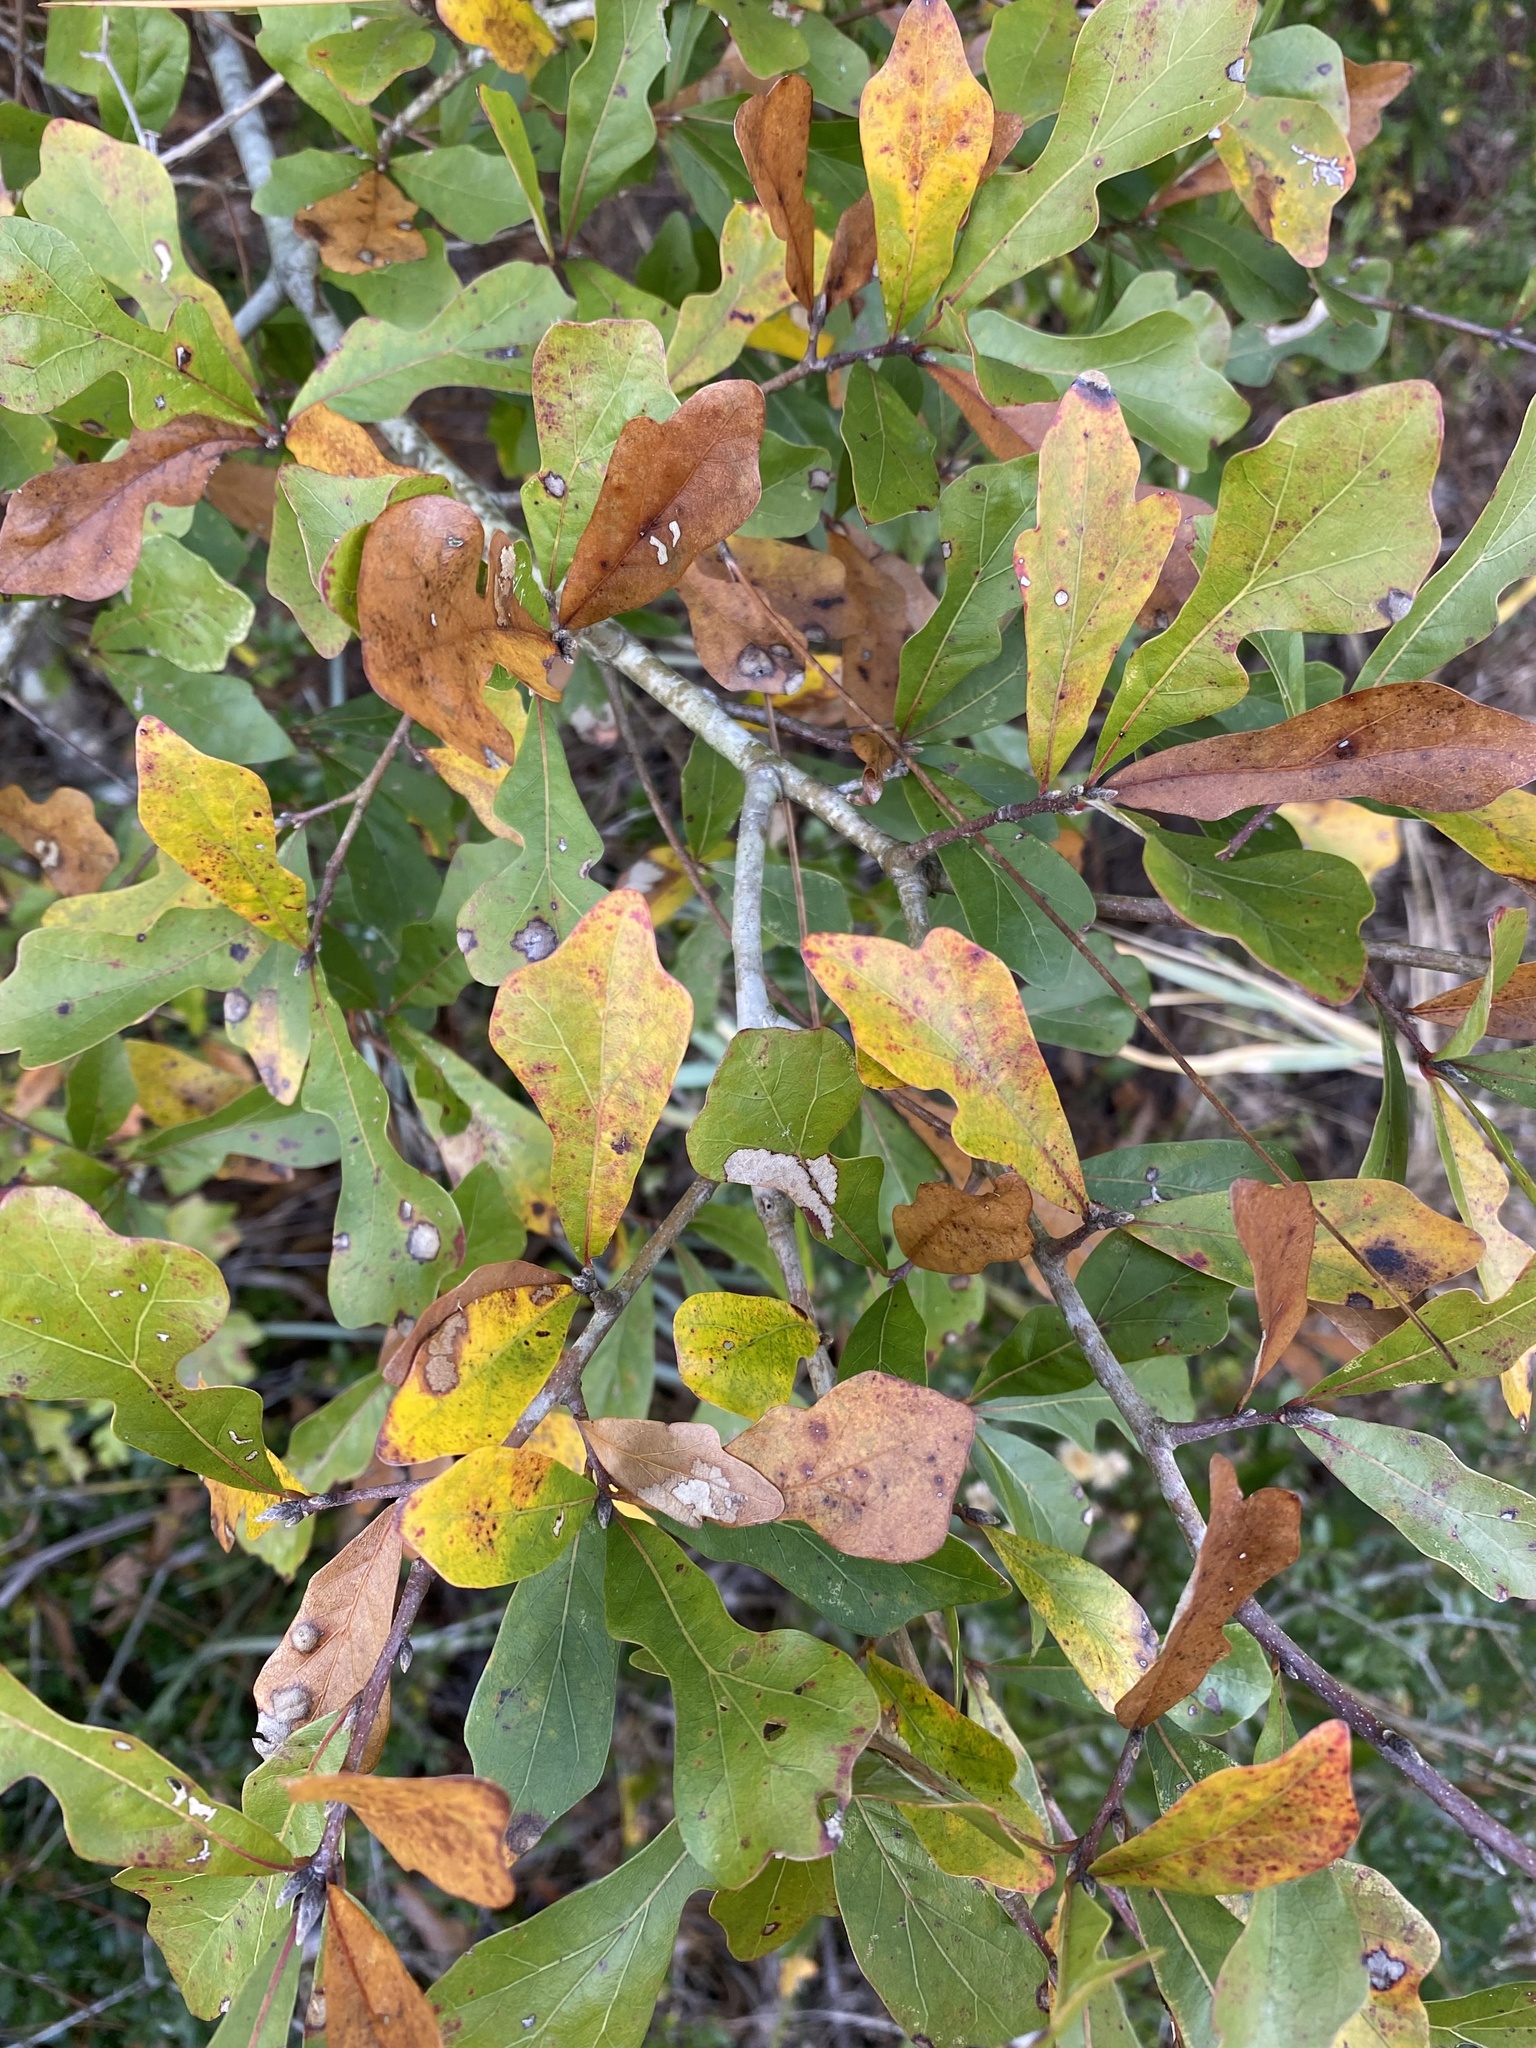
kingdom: Plantae
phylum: Tracheophyta
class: Magnoliopsida
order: Fagales
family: Fagaceae
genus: Quercus
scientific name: Quercus nigra
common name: Water oak
